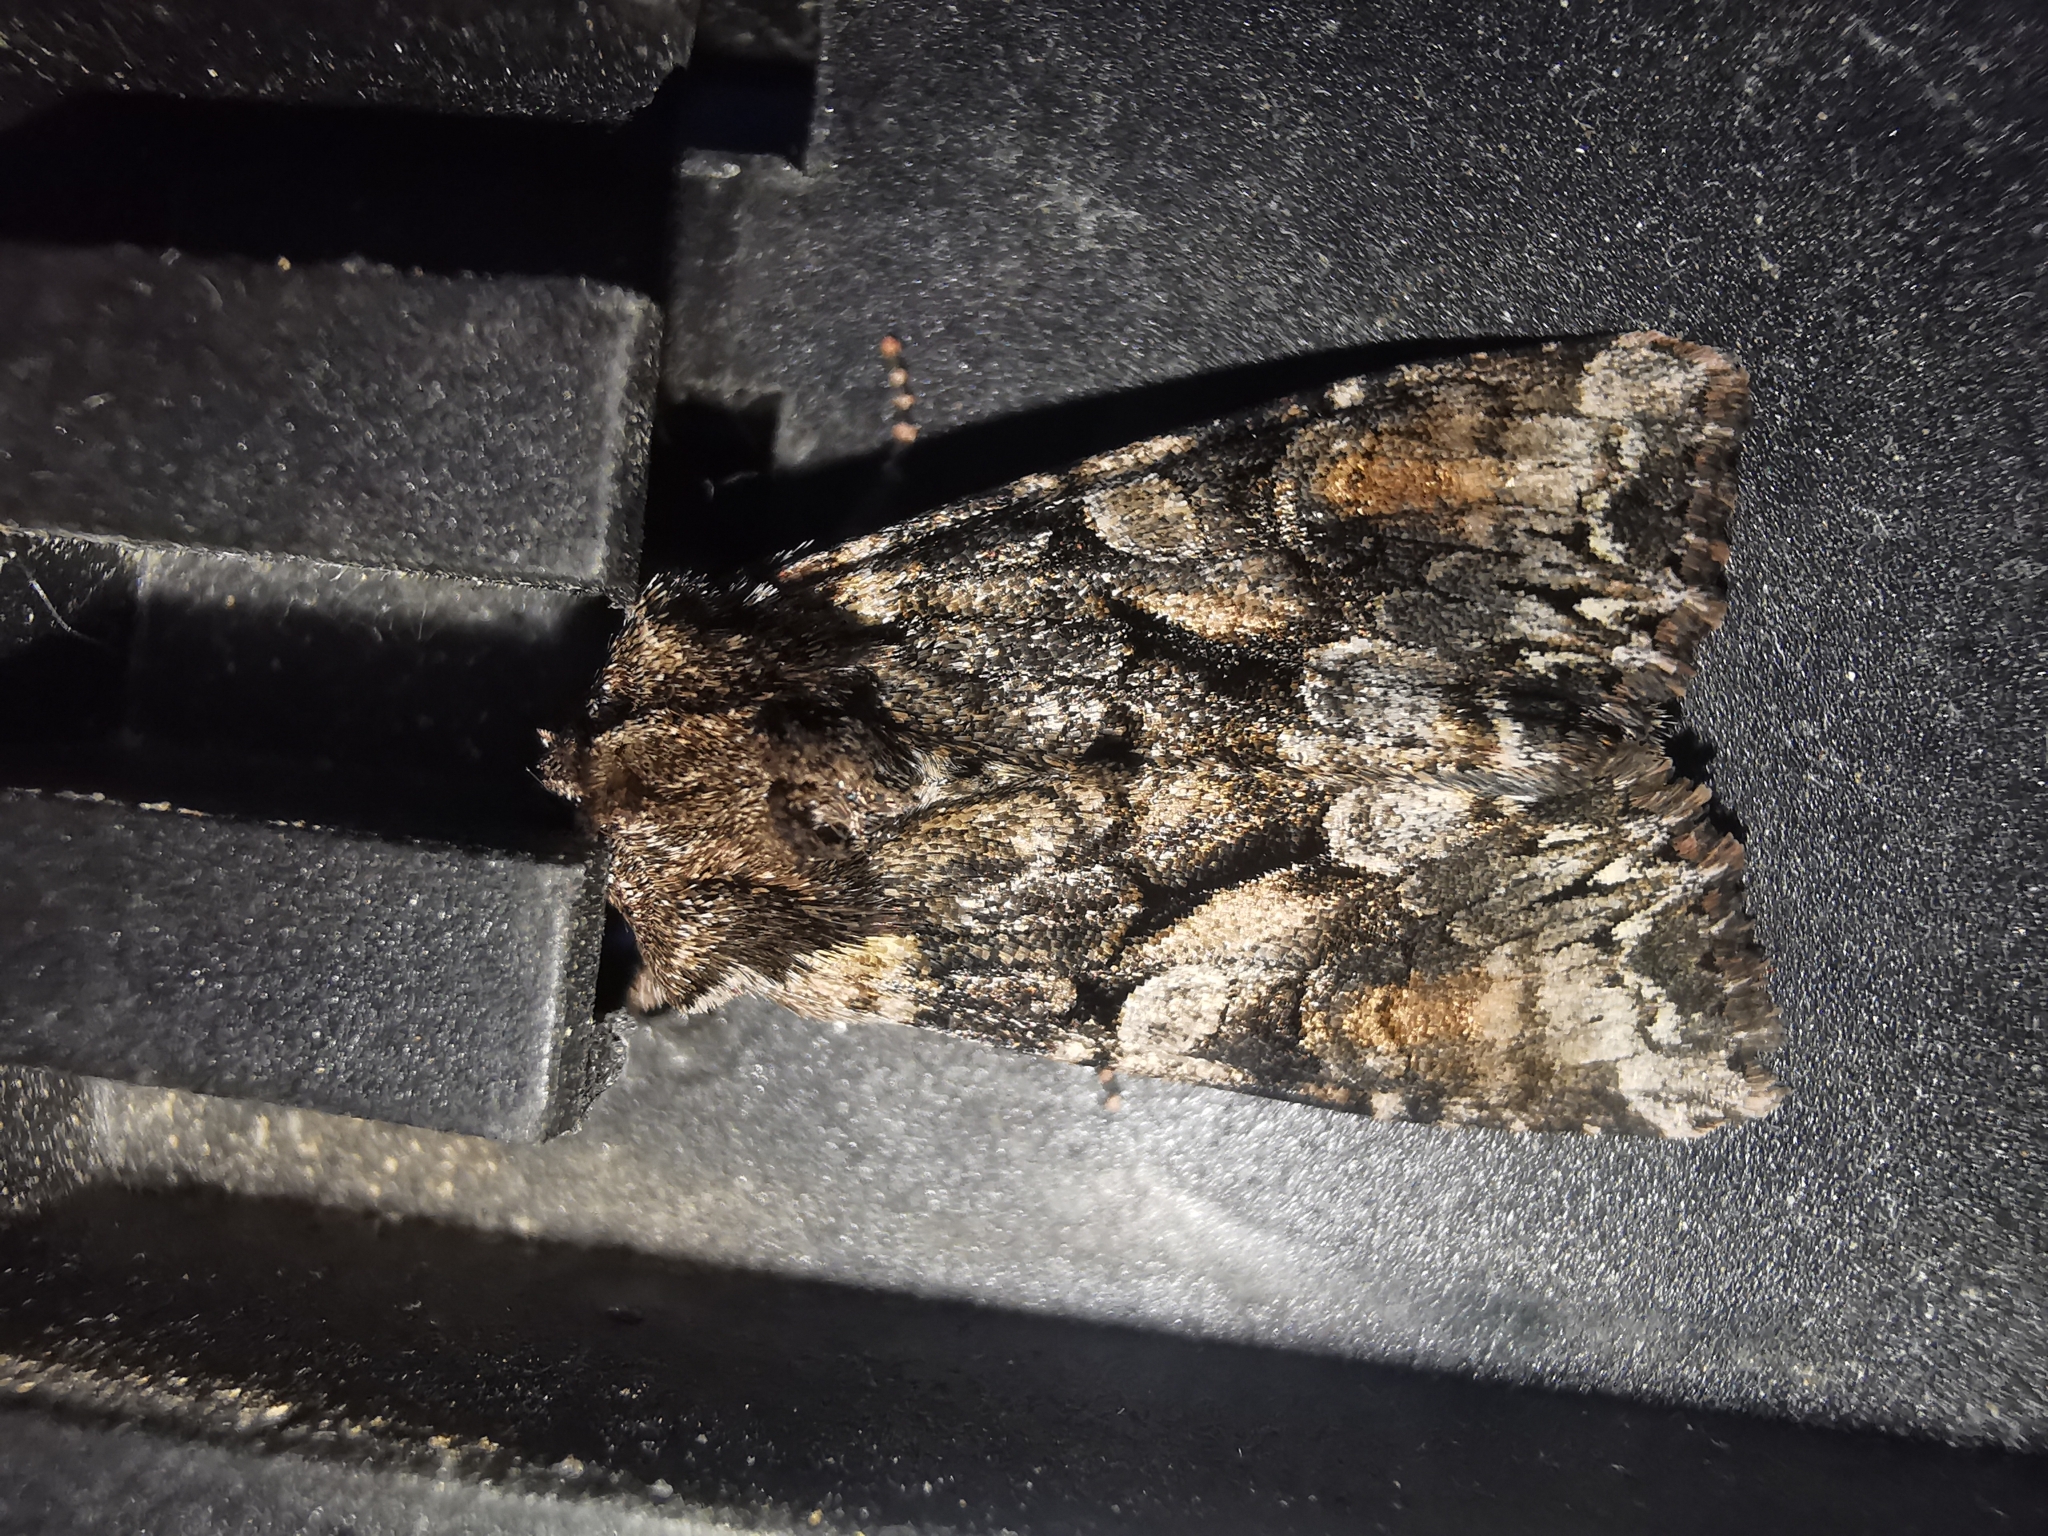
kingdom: Animalia
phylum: Arthropoda
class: Insecta
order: Lepidoptera
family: Noctuidae
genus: Lacanobia
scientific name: Lacanobia contigua
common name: Beautiful brocade
